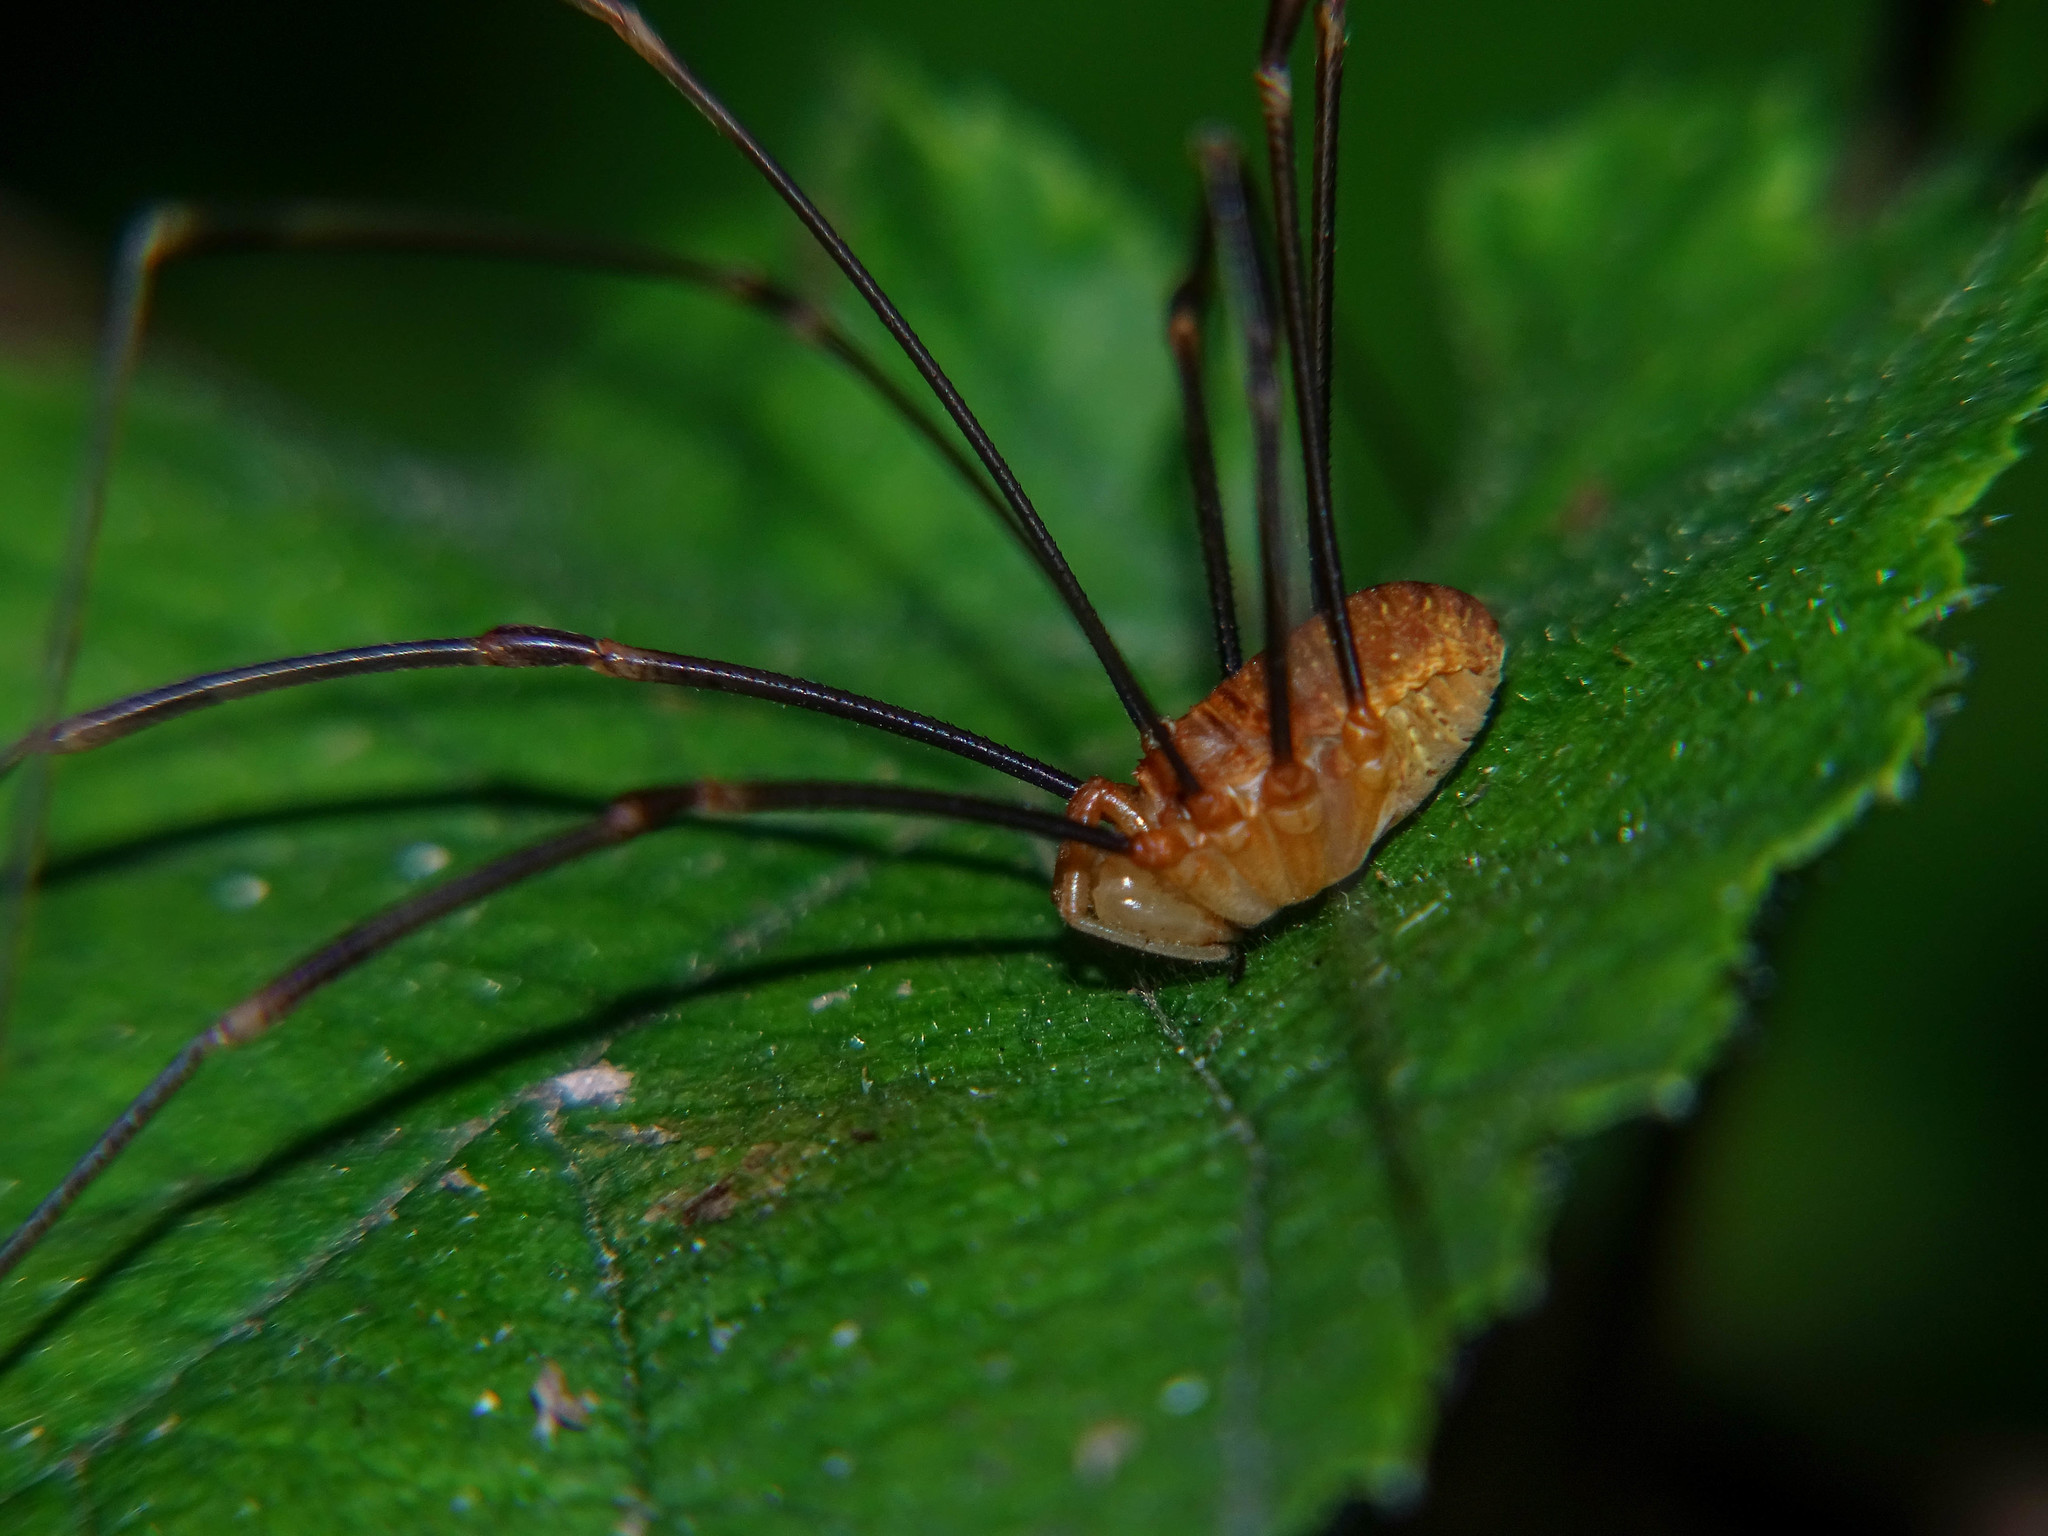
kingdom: Animalia
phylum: Arthropoda
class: Arachnida
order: Opiliones
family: Phalangiidae
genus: Opilio
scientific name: Opilio canestrinii
